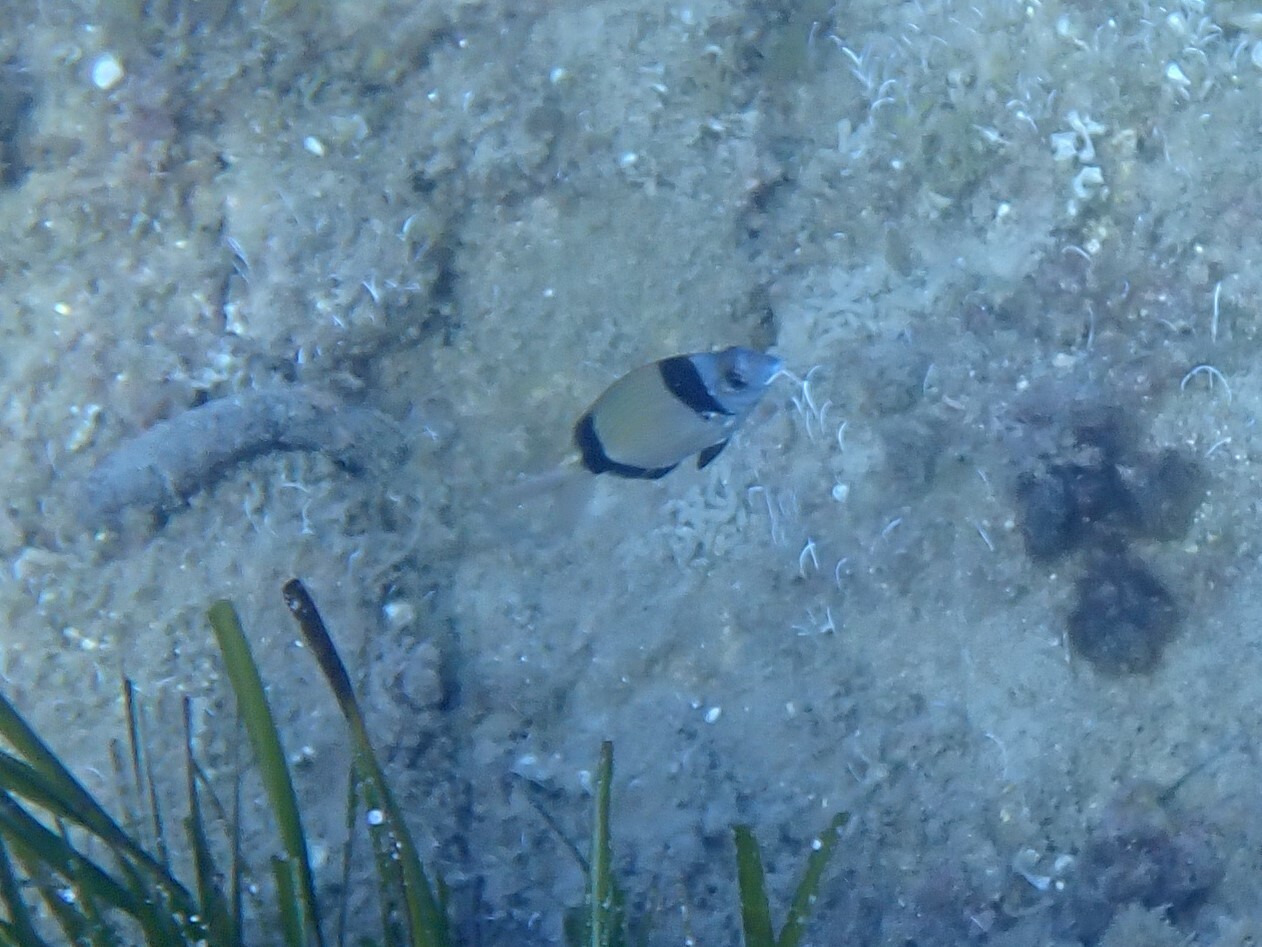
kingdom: Animalia
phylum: Chordata
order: Perciformes
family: Sparidae
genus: Diplodus
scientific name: Diplodus vulgaris
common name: Common two-banded seabream
